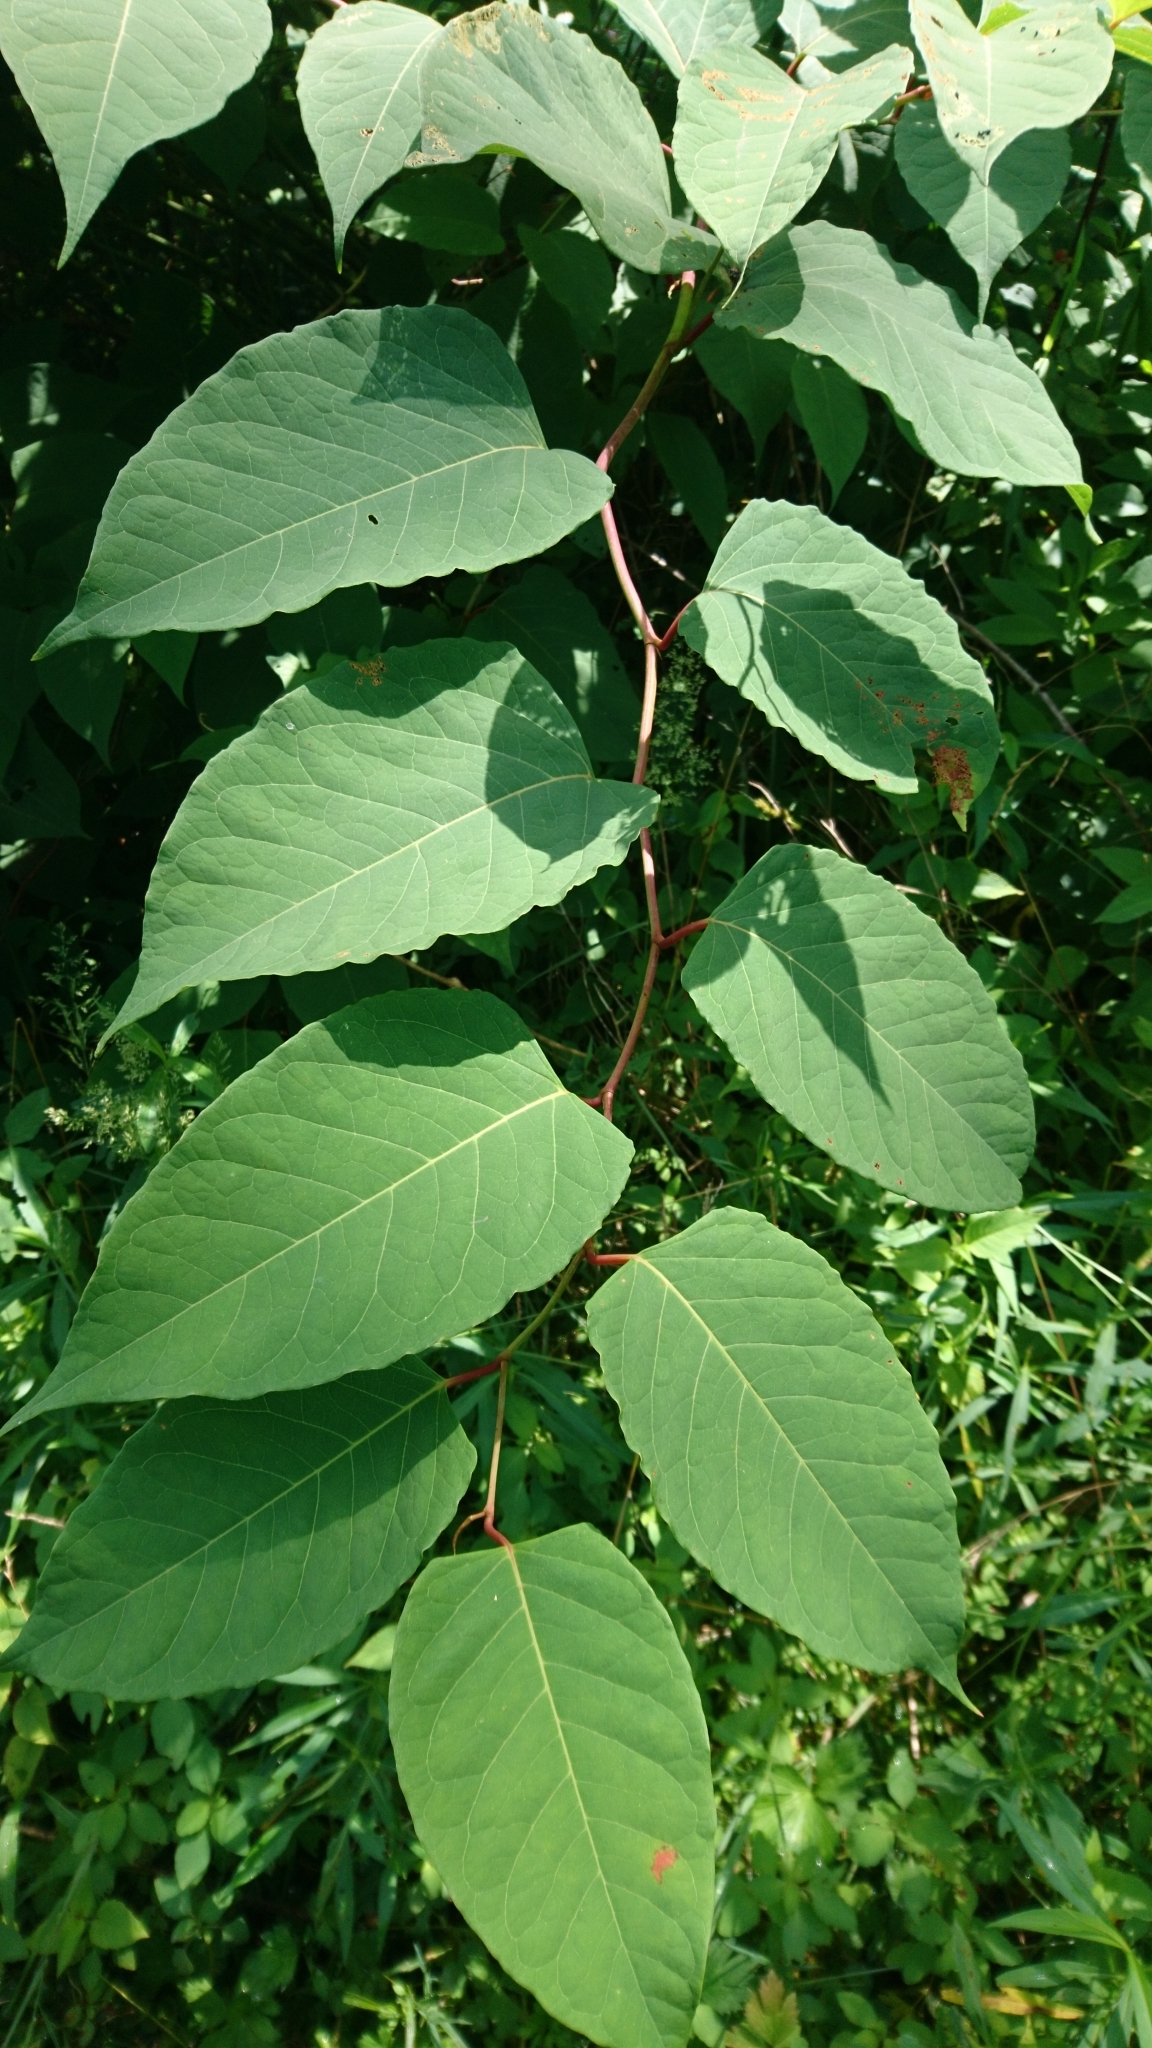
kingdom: Plantae
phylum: Tracheophyta
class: Magnoliopsida
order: Caryophyllales
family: Polygonaceae
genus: Reynoutria
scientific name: Reynoutria japonica
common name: Japanese knotweed
